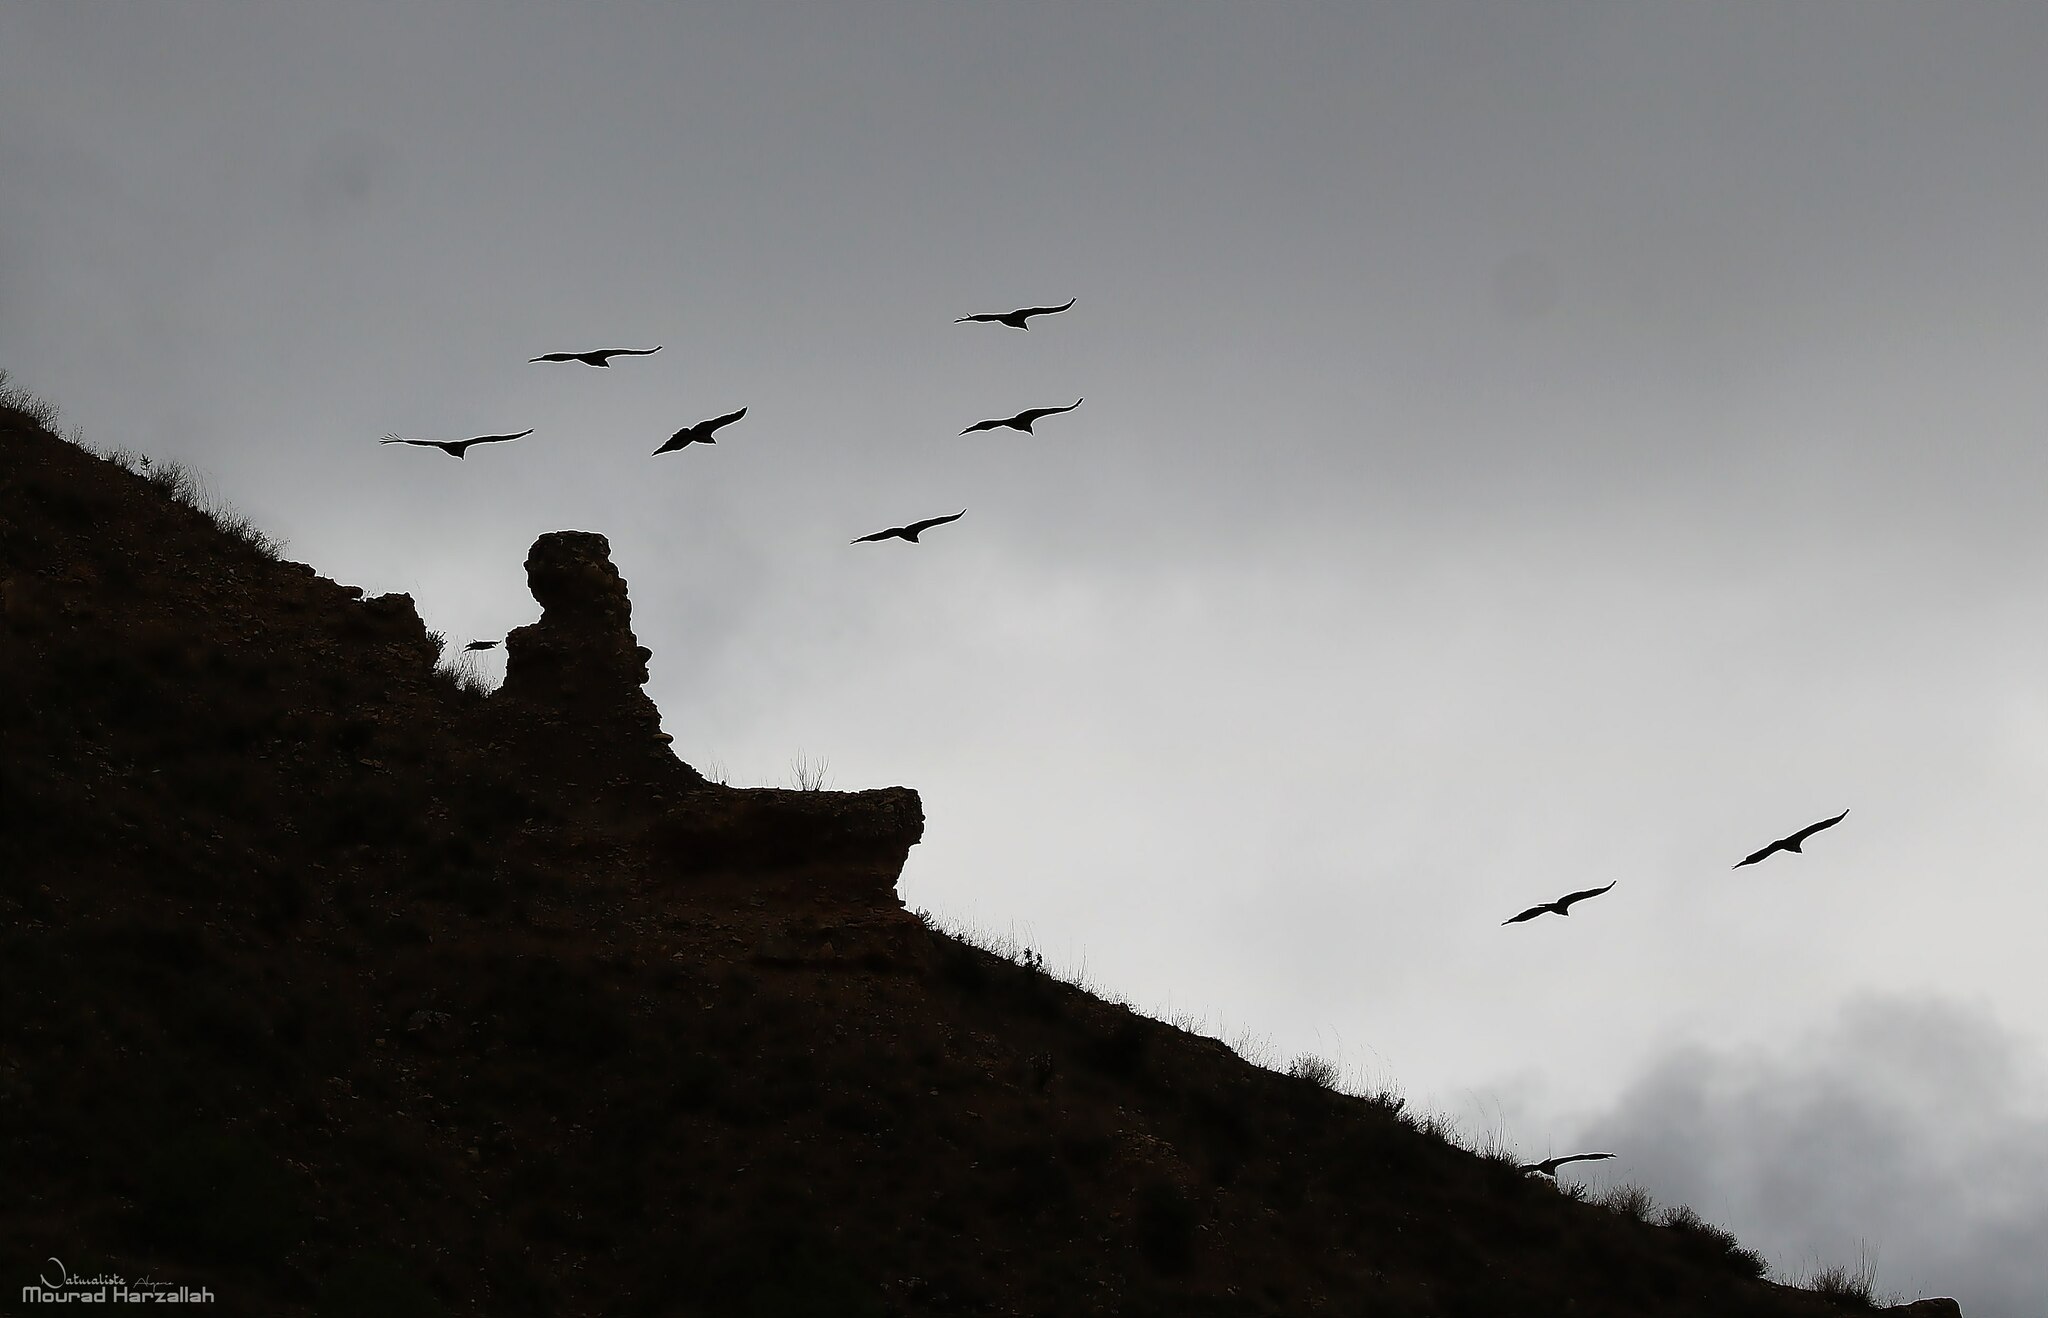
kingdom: Animalia
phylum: Chordata
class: Aves
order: Accipitriformes
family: Accipitridae
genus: Gyps
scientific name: Gyps fulvus
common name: Griffon vulture
